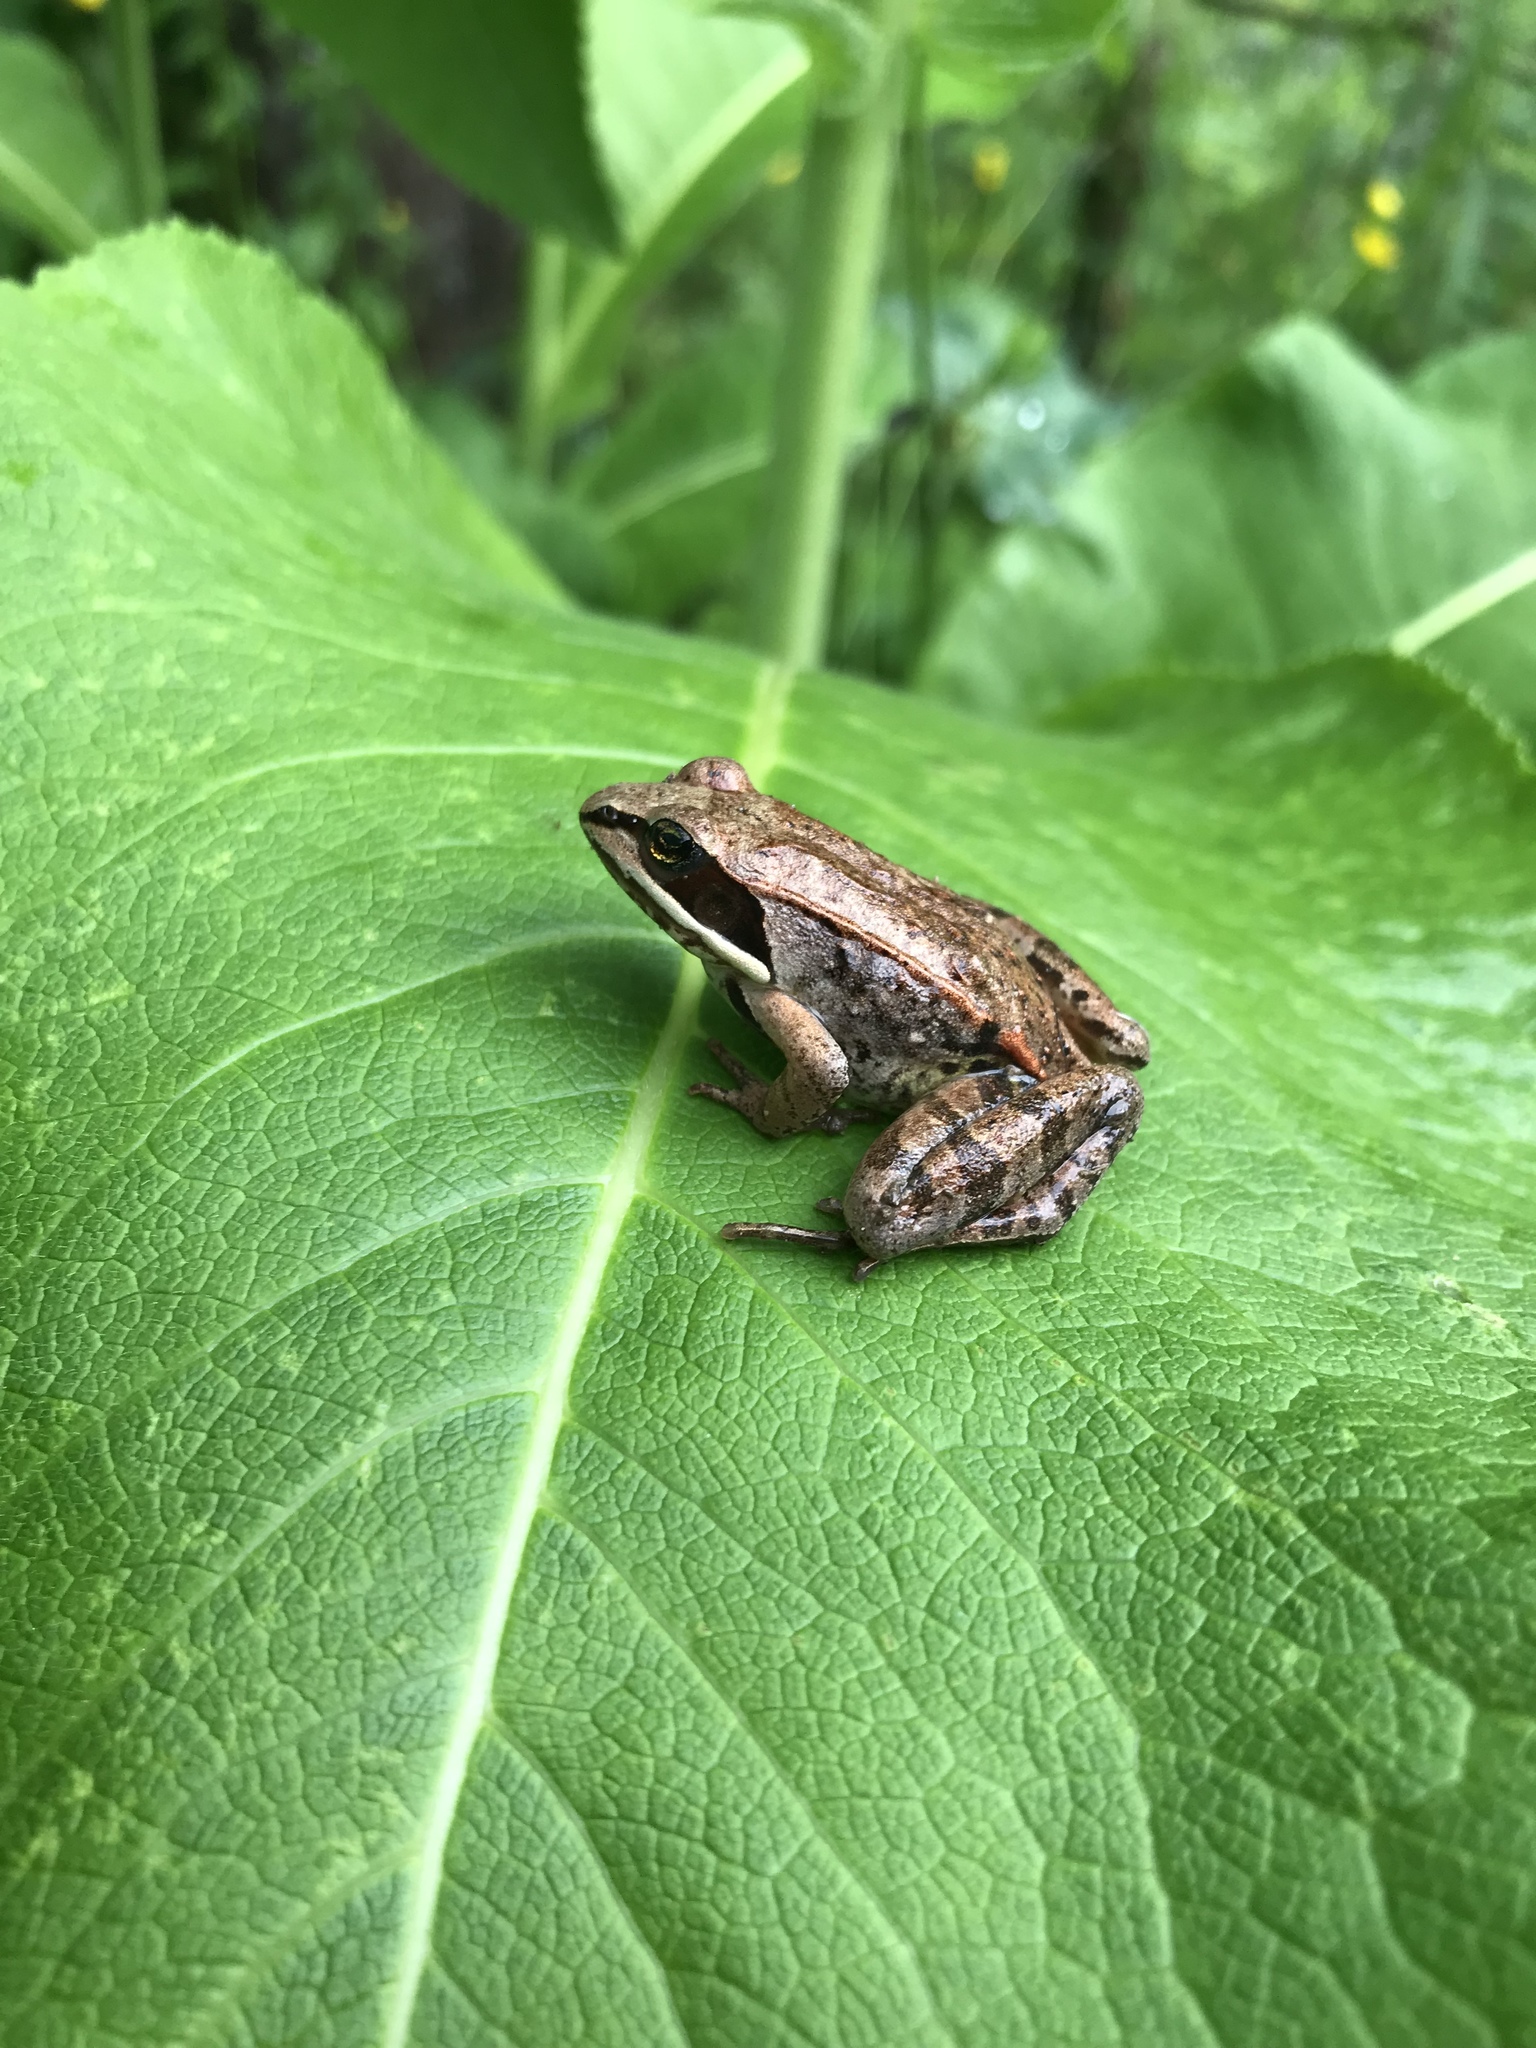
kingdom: Animalia
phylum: Chordata
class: Amphibia
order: Anura
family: Ranidae
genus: Lithobates
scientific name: Lithobates sylvaticus
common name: Wood frog
